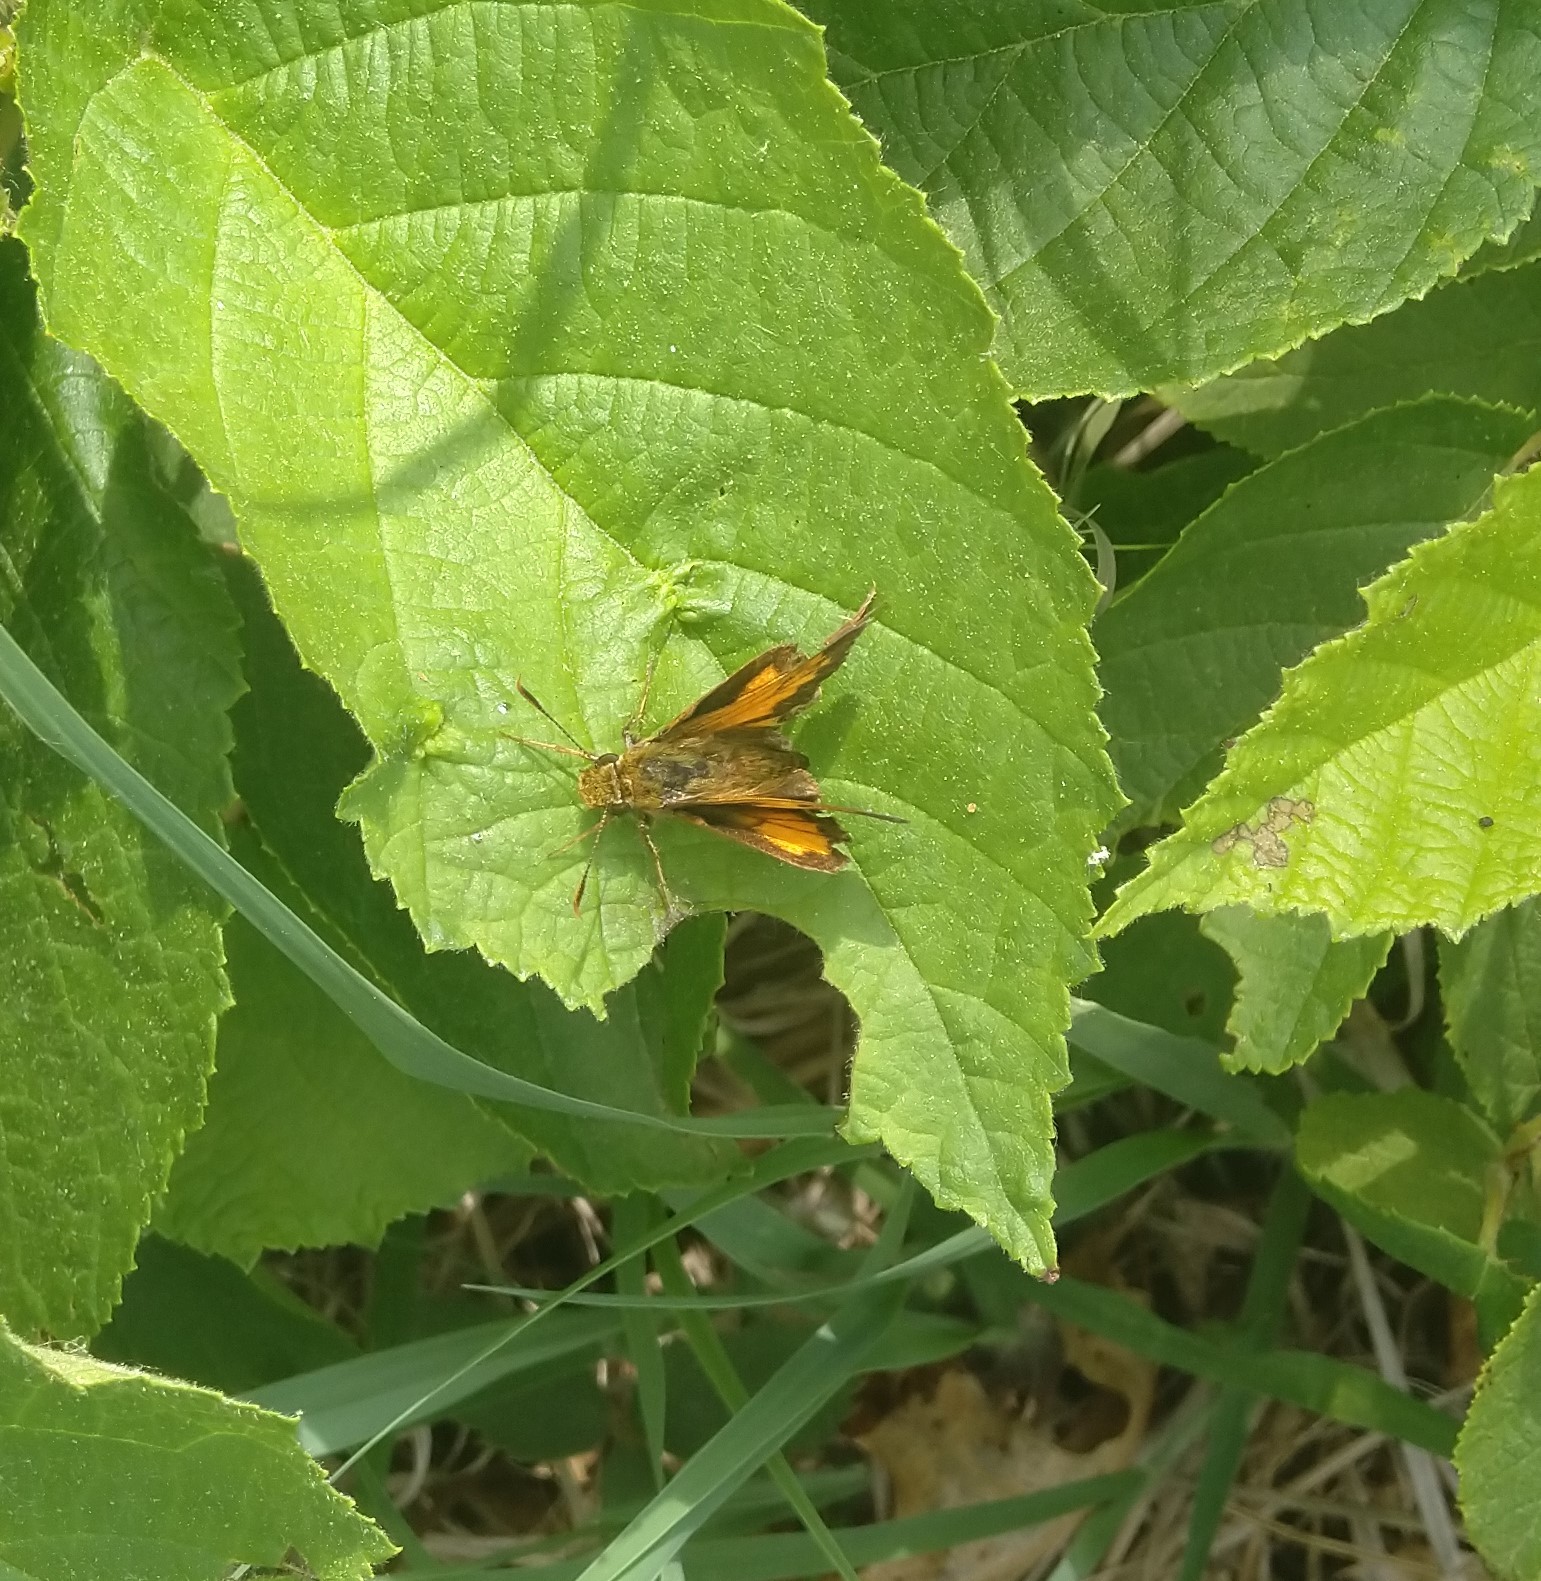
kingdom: Animalia
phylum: Arthropoda
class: Insecta
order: Lepidoptera
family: Hesperiidae
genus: Lon
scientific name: Lon hobomok
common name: Hobomok skipper
